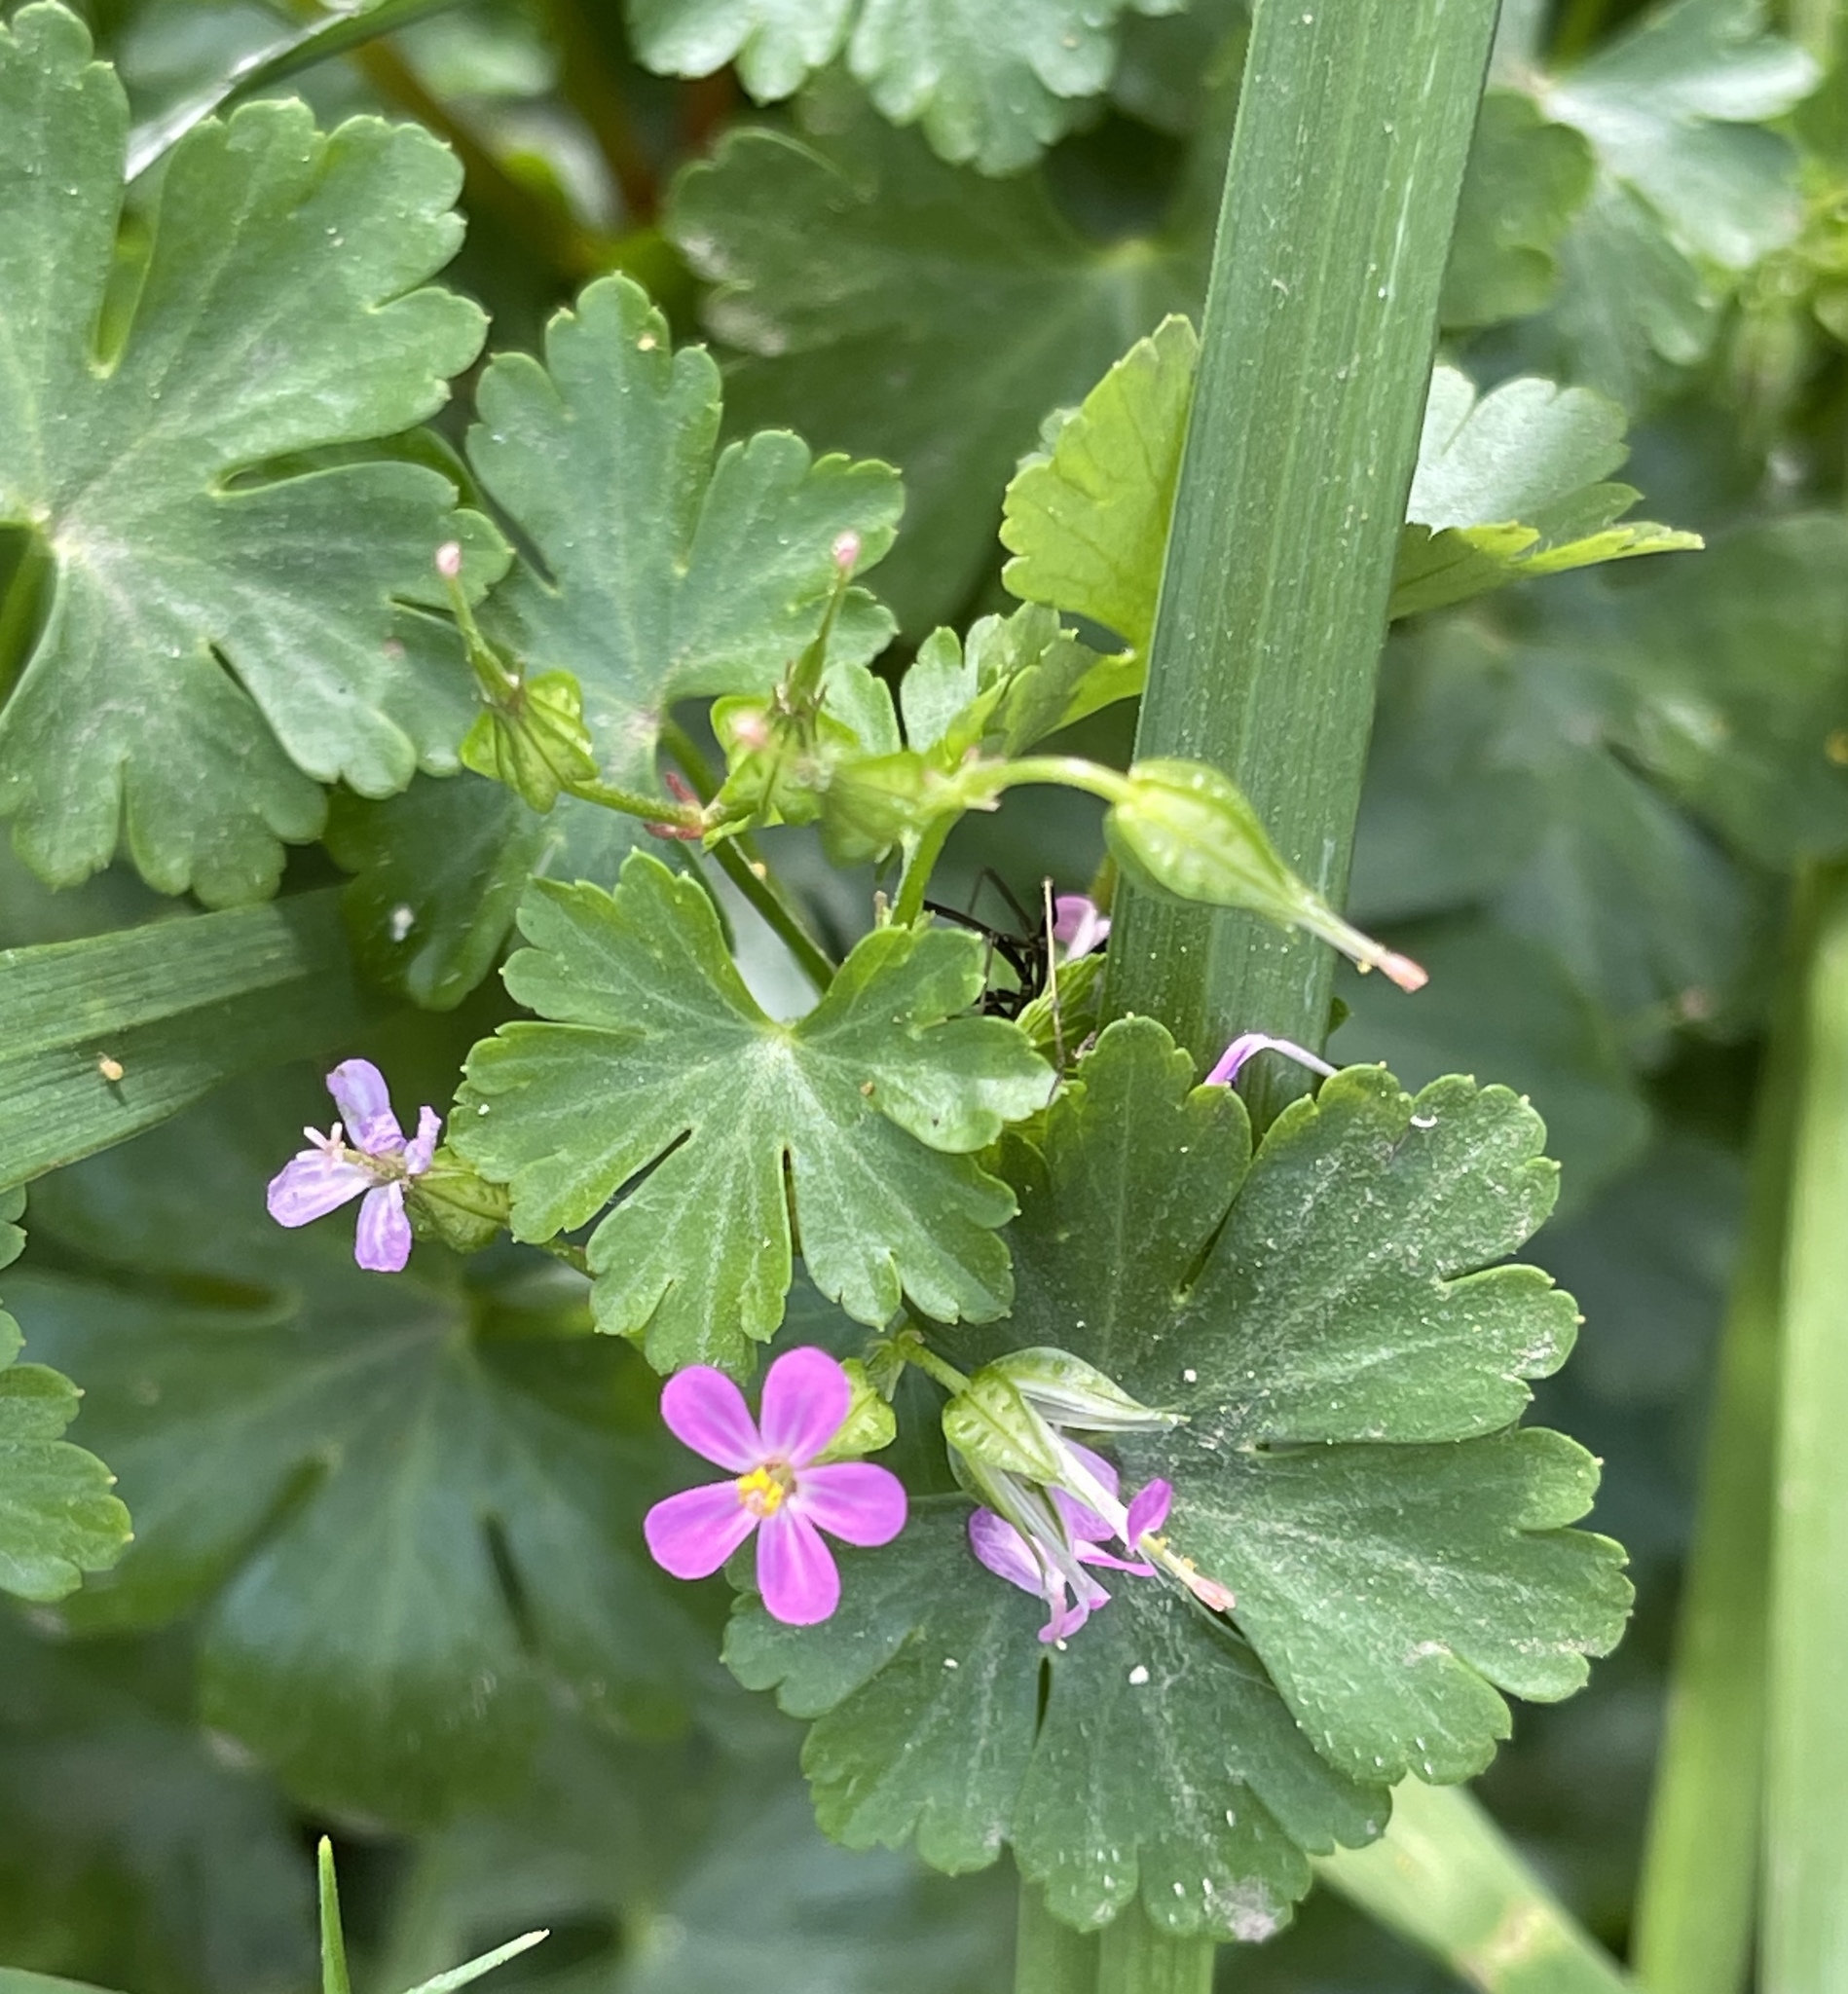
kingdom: Plantae
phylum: Tracheophyta
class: Magnoliopsida
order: Geraniales
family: Geraniaceae
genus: Geranium
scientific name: Geranium lucidum
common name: Shining crane's-bill
